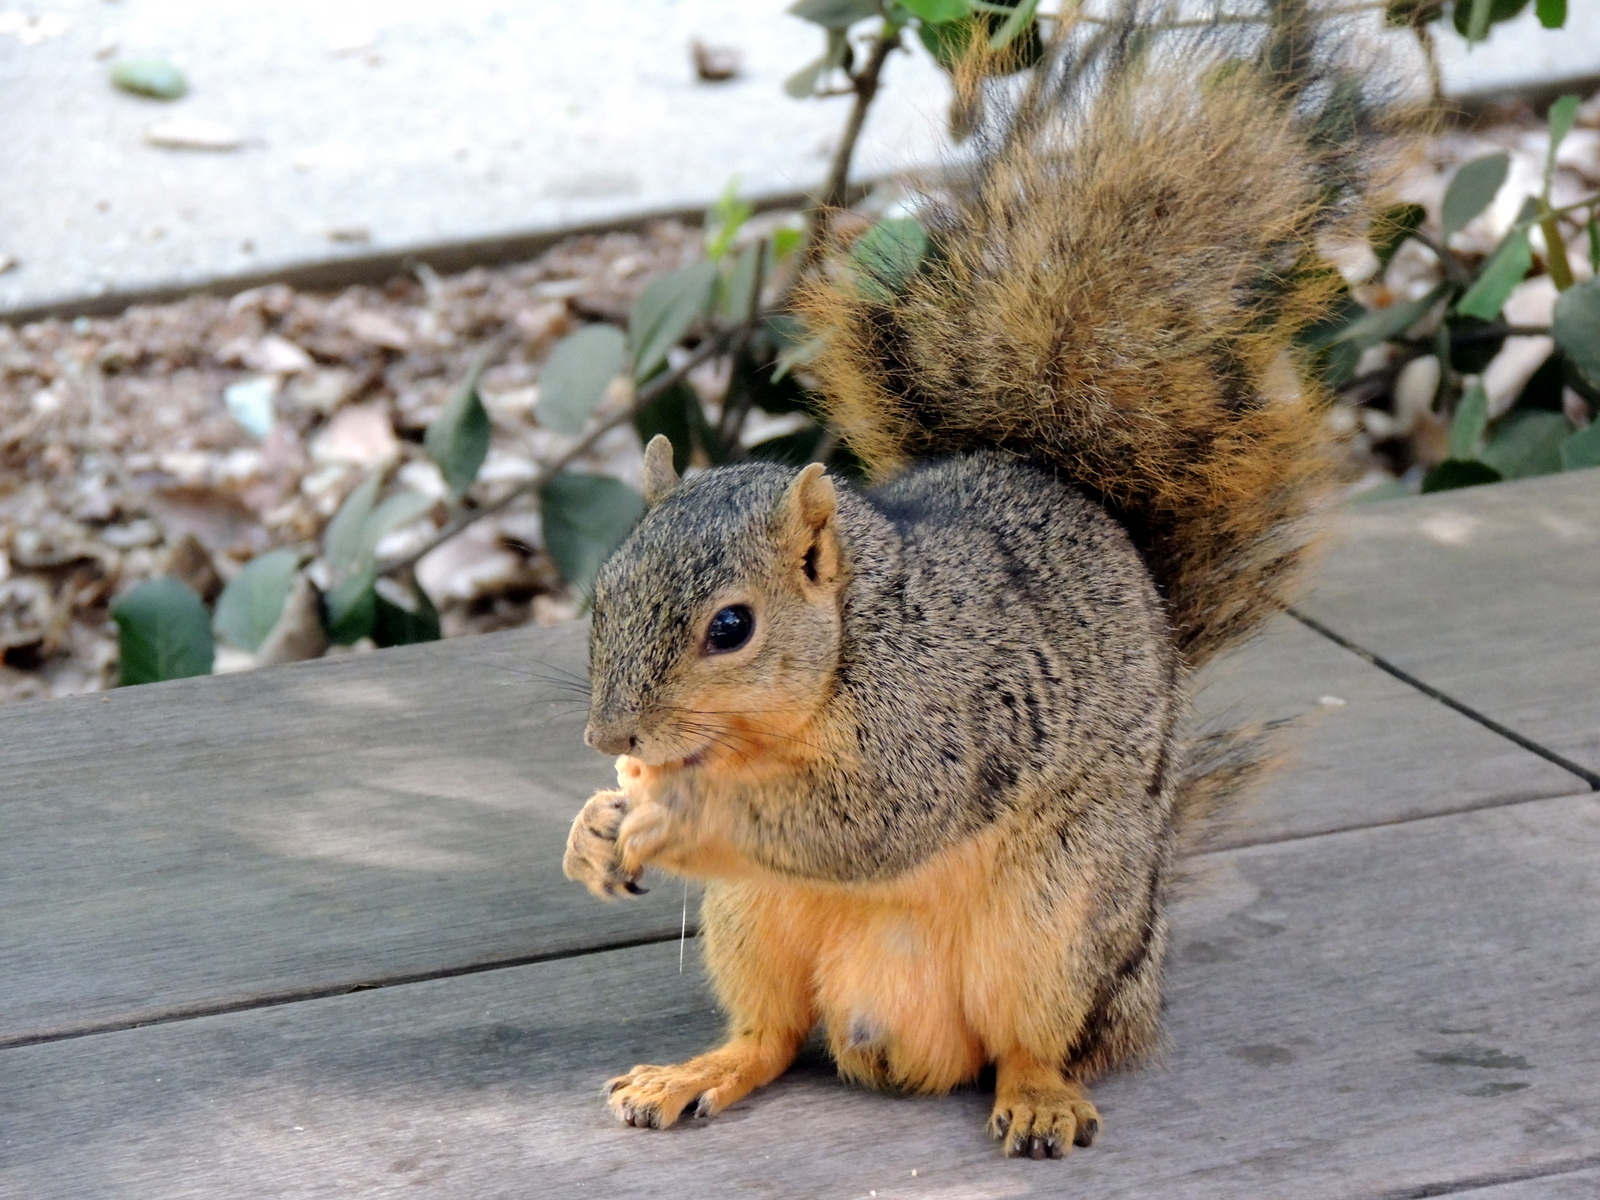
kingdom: Animalia
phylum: Chordata
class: Mammalia
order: Rodentia
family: Sciuridae
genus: Sciurus
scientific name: Sciurus niger
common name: Fox squirrel
